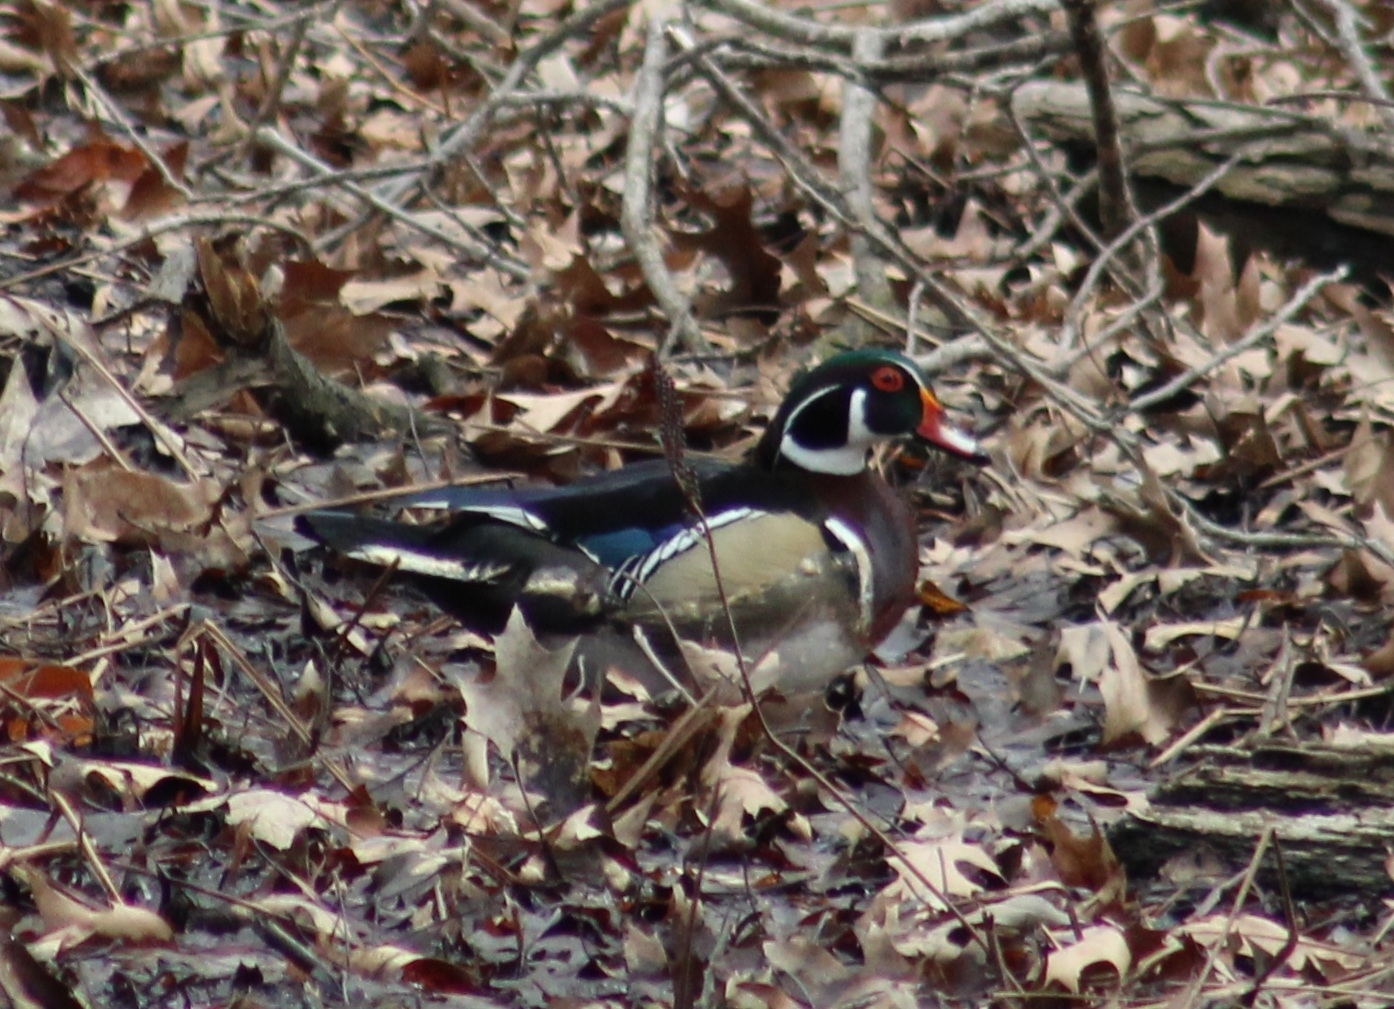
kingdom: Animalia
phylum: Chordata
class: Aves
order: Anseriformes
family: Anatidae
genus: Aix
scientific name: Aix sponsa
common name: Wood duck
